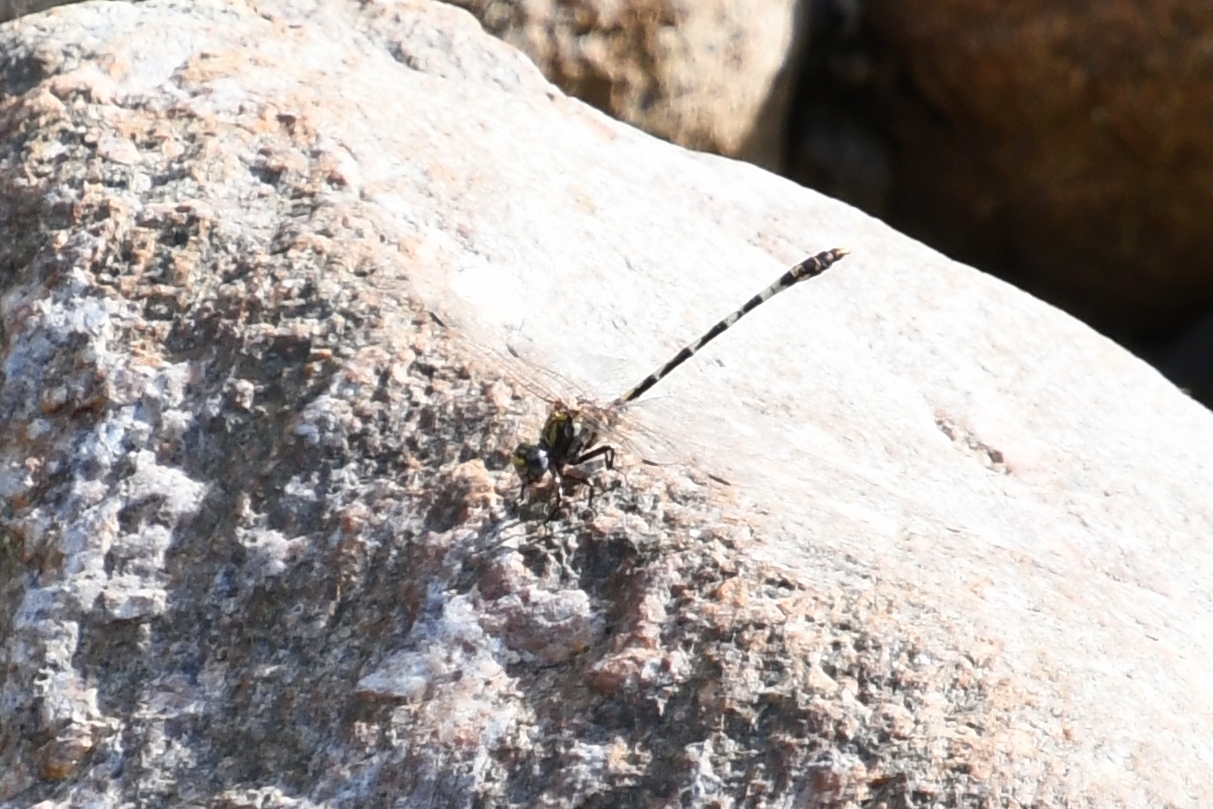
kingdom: Animalia
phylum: Arthropoda
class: Insecta
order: Odonata
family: Gomphidae
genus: Progomphus
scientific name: Progomphus borealis
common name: Gray sanddragon
